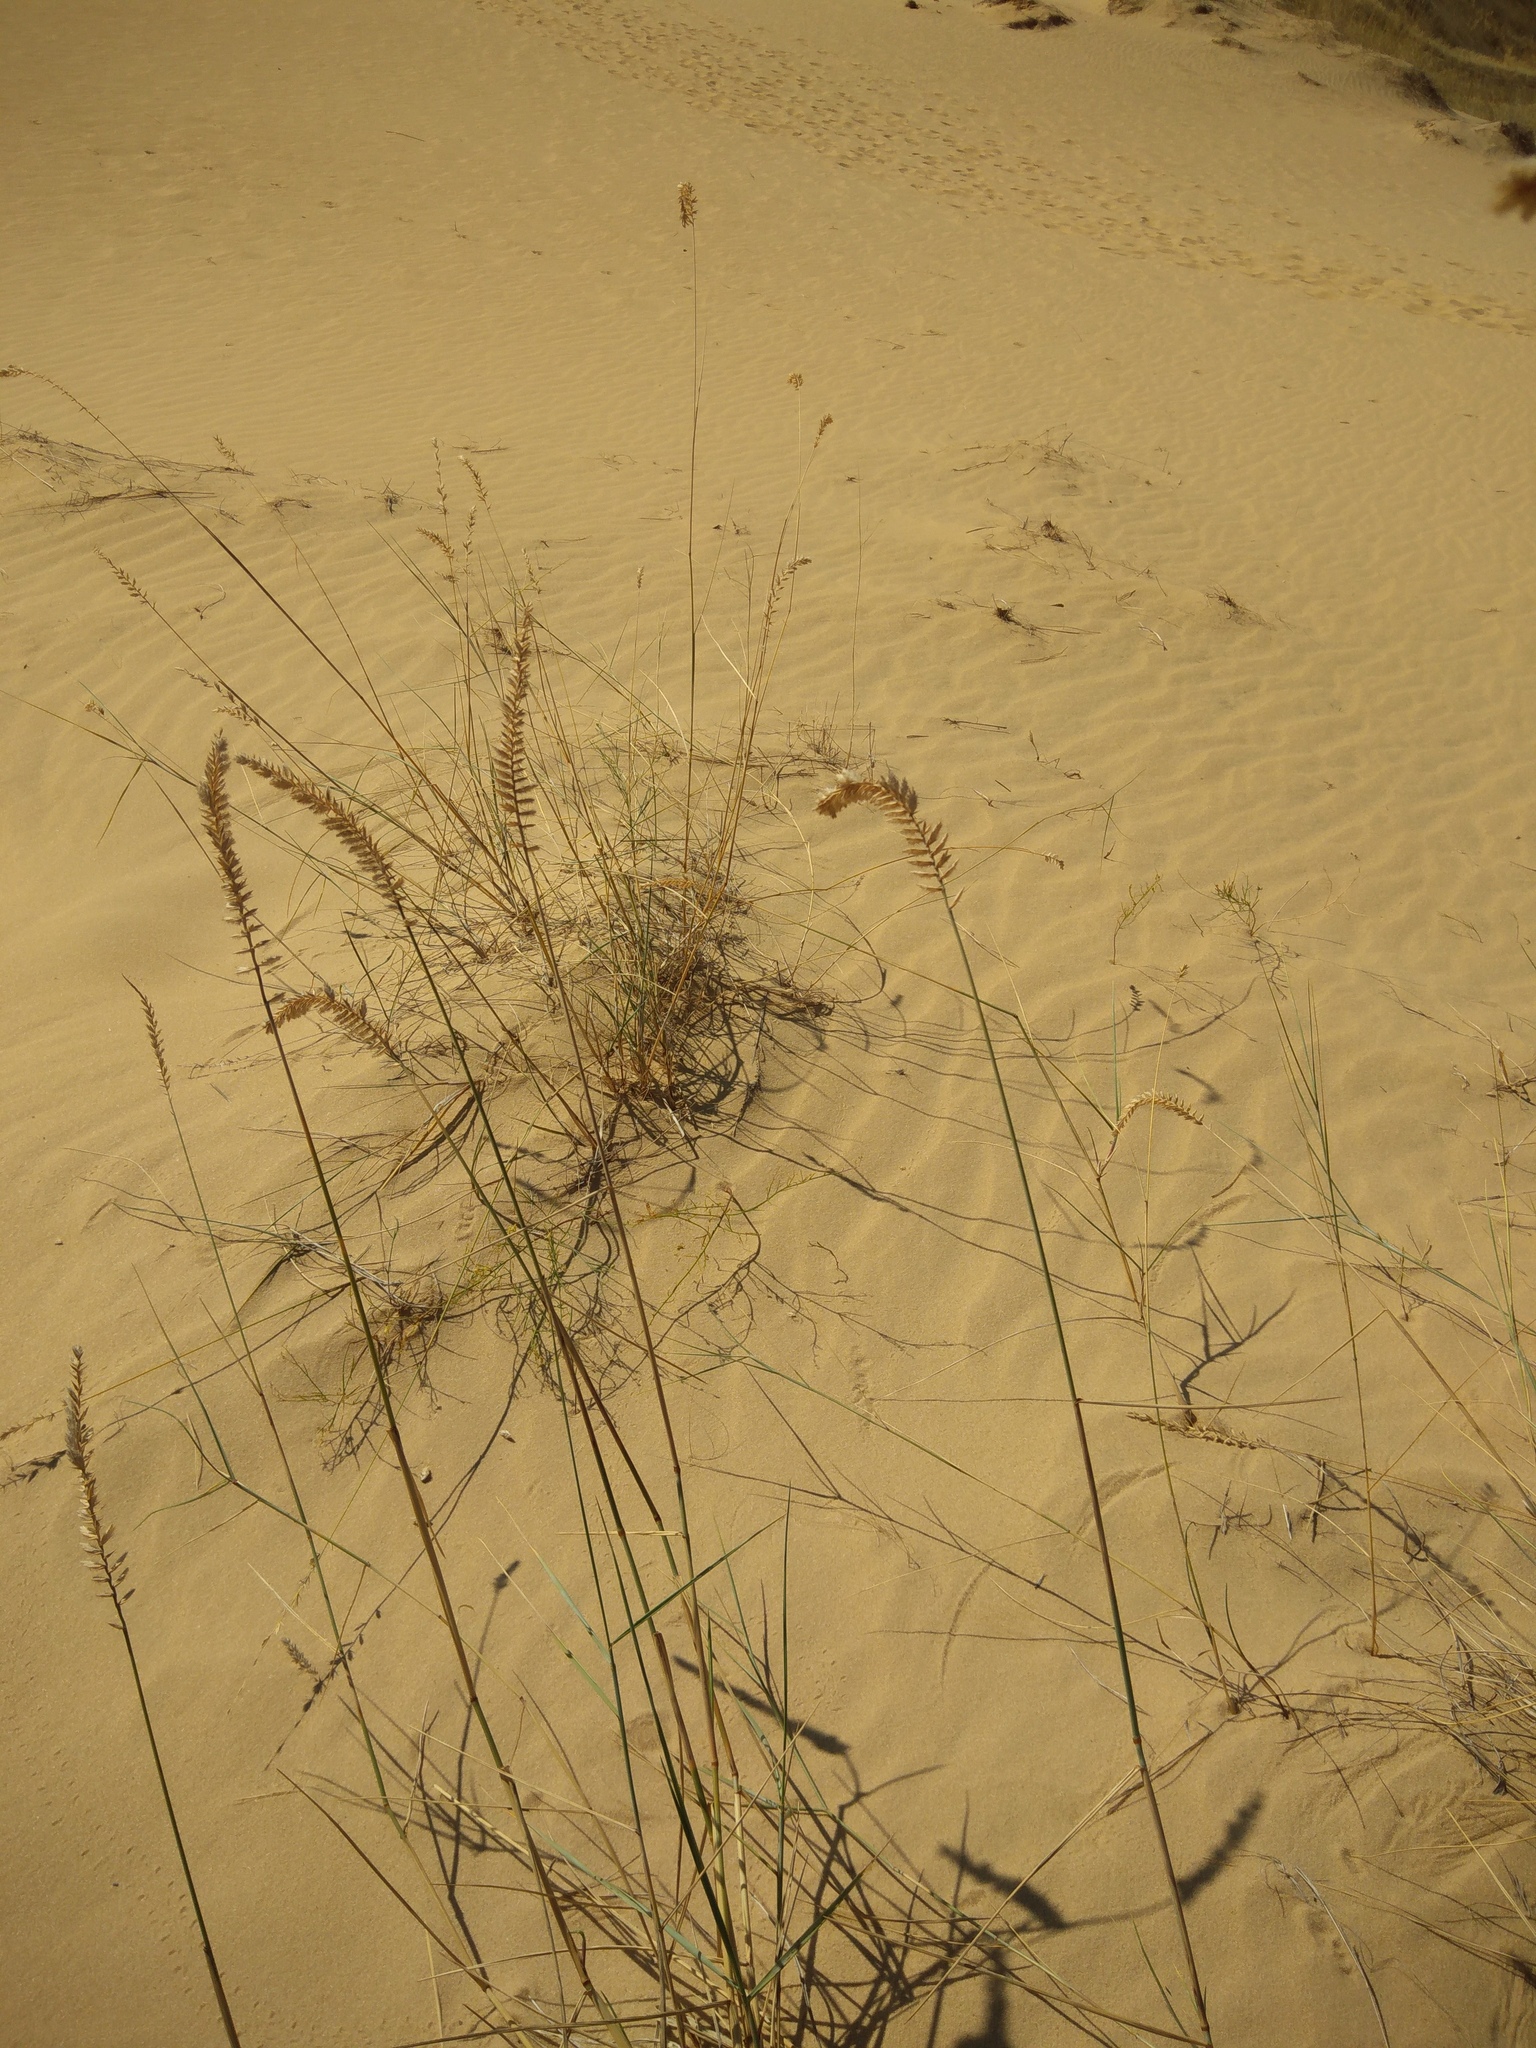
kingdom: Plantae
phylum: Tracheophyta
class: Liliopsida
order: Poales
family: Poaceae
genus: Agropyron
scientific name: Agropyron dasyanthum
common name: Edge flowered crested wheatgrass
